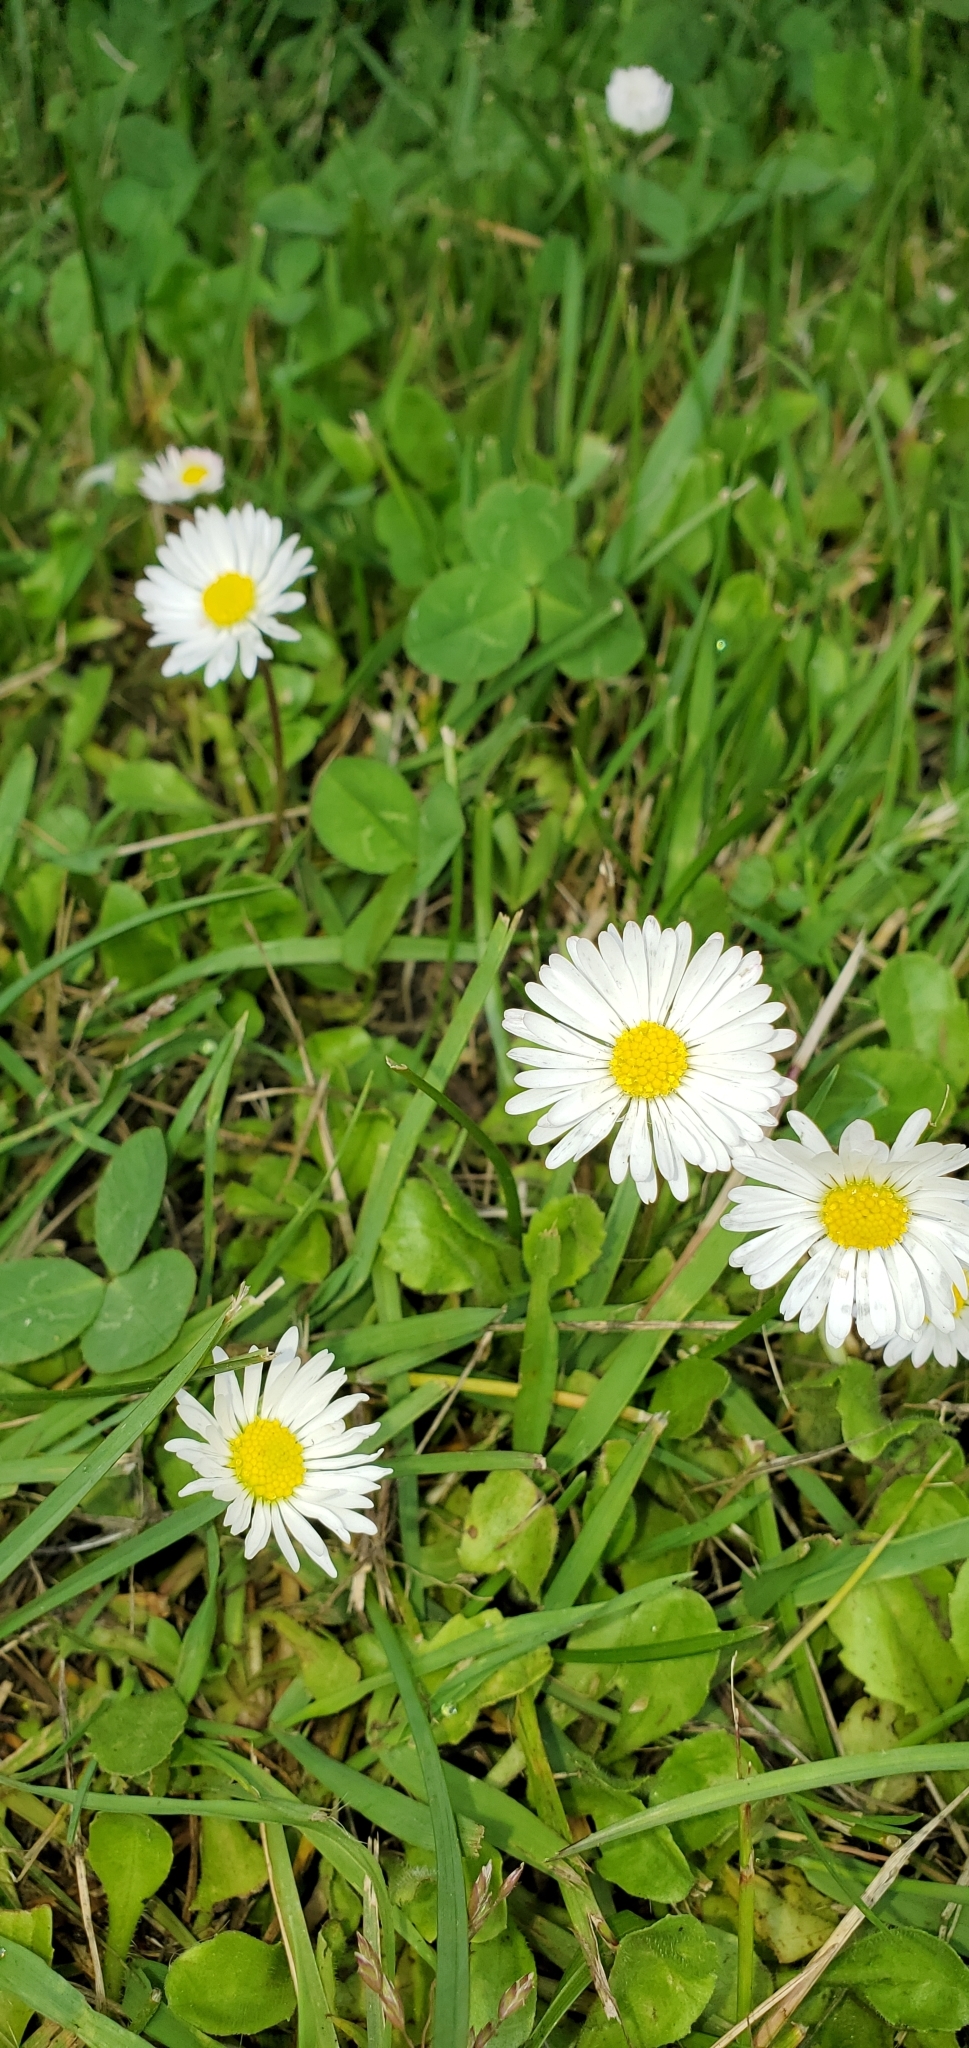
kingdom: Plantae
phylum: Tracheophyta
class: Magnoliopsida
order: Asterales
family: Asteraceae
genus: Bellis
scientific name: Bellis perennis
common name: Lawndaisy
